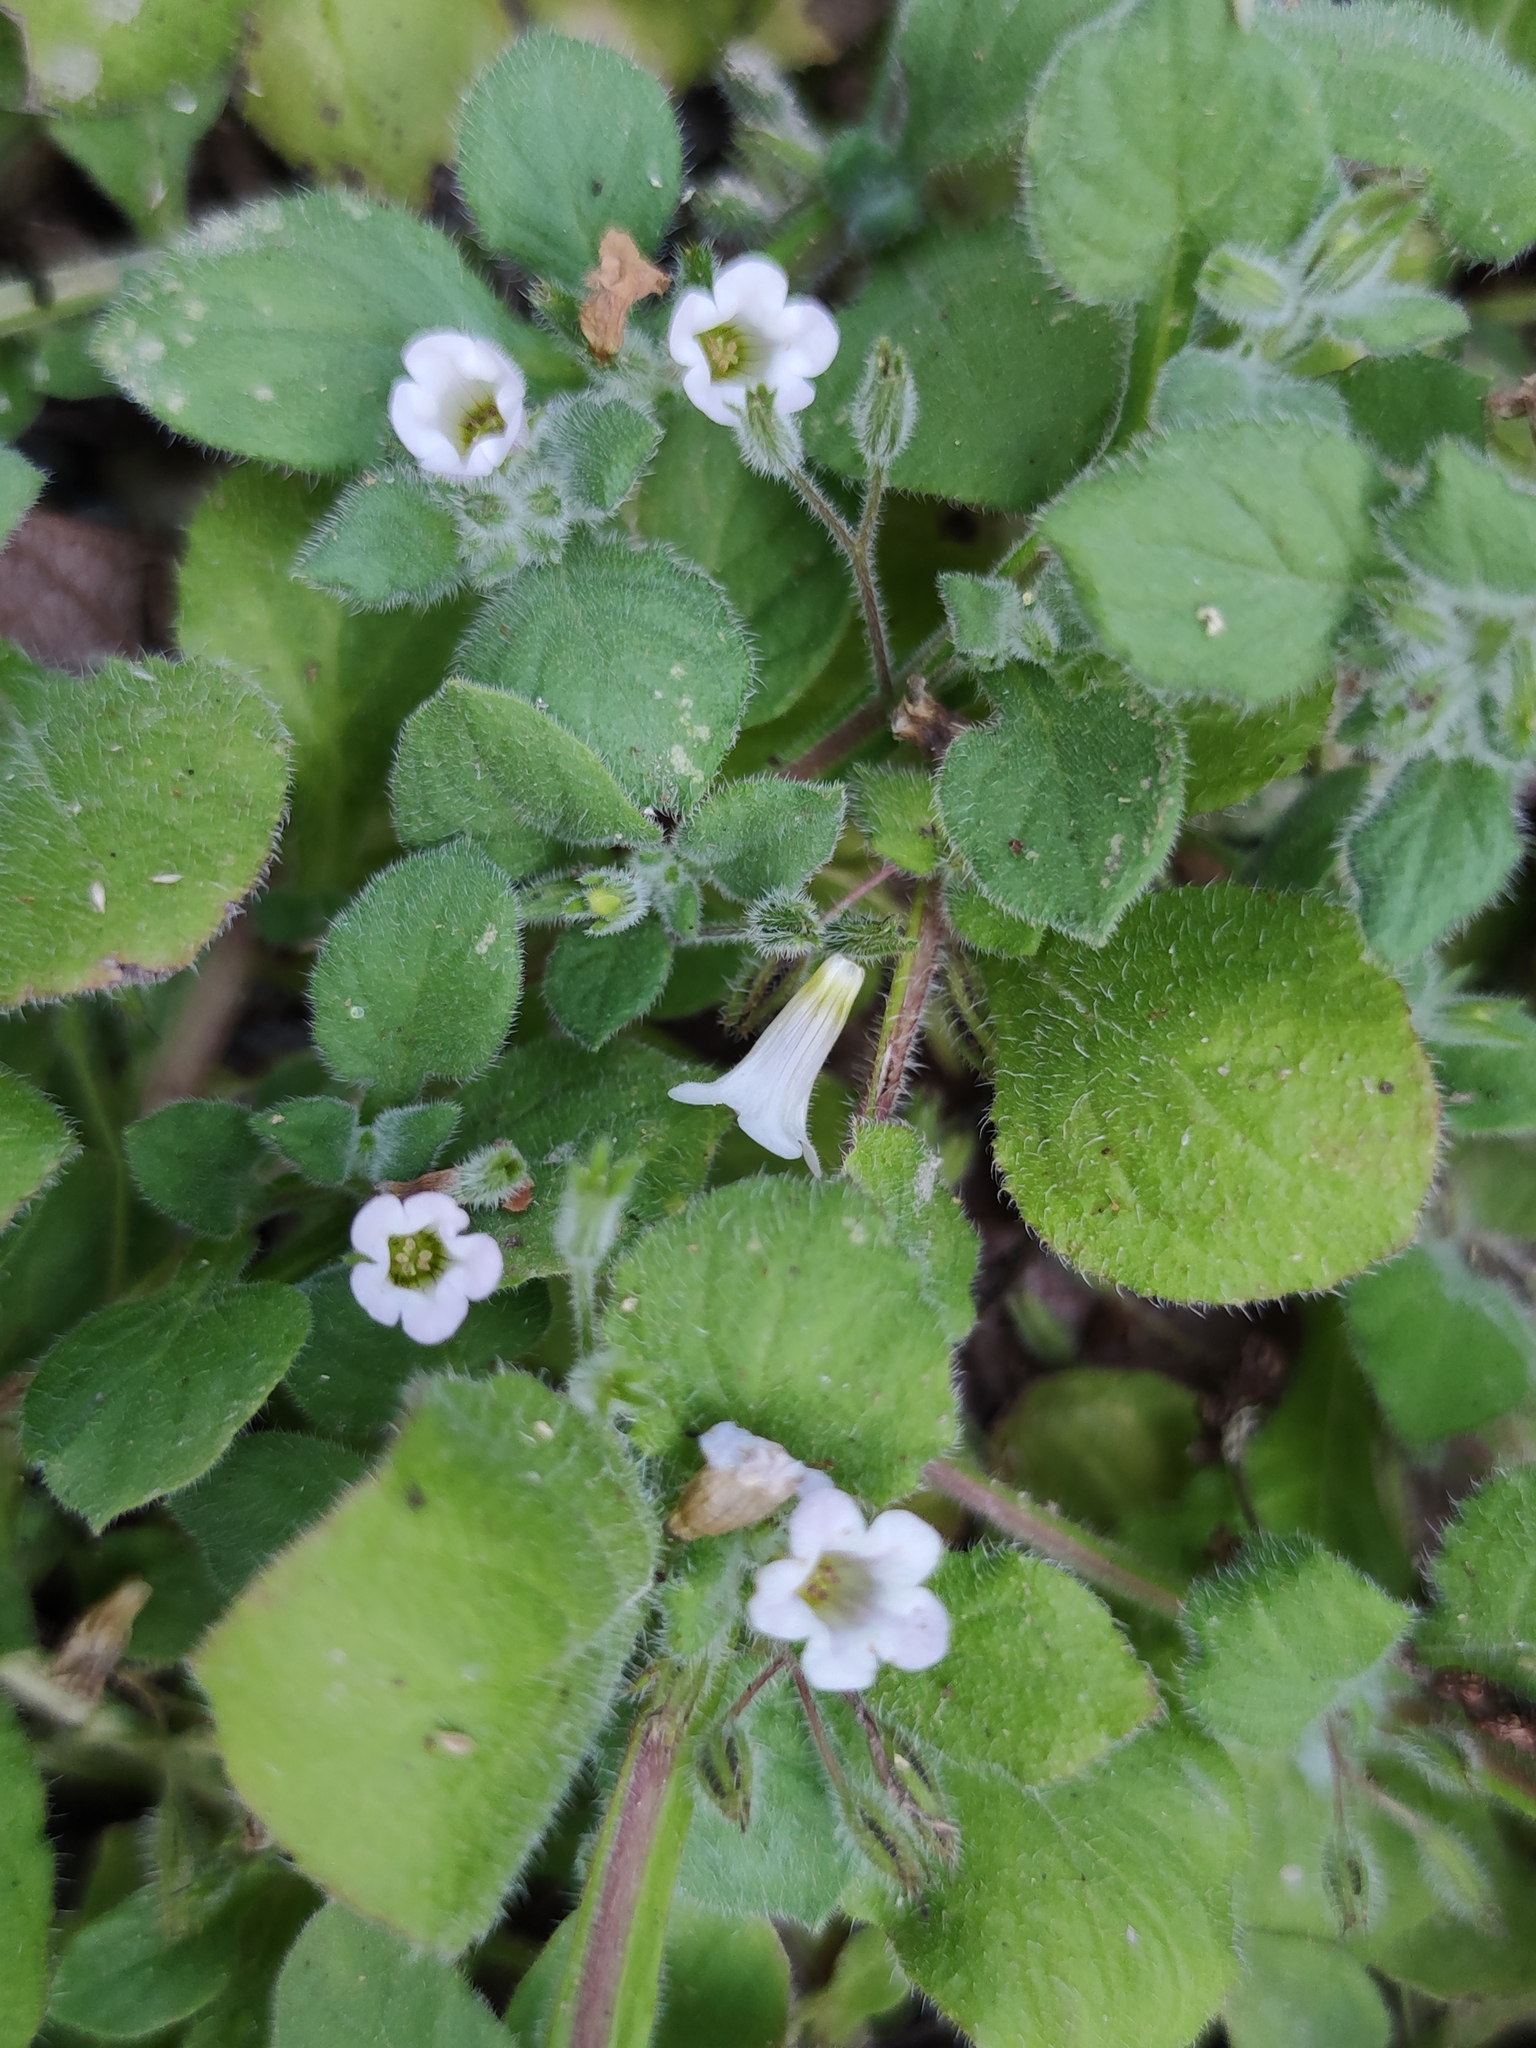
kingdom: Plantae
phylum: Tracheophyta
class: Magnoliopsida
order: Boraginales
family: Namaceae
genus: Nama
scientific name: Nama jamaicensis
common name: Jamaicanweed
